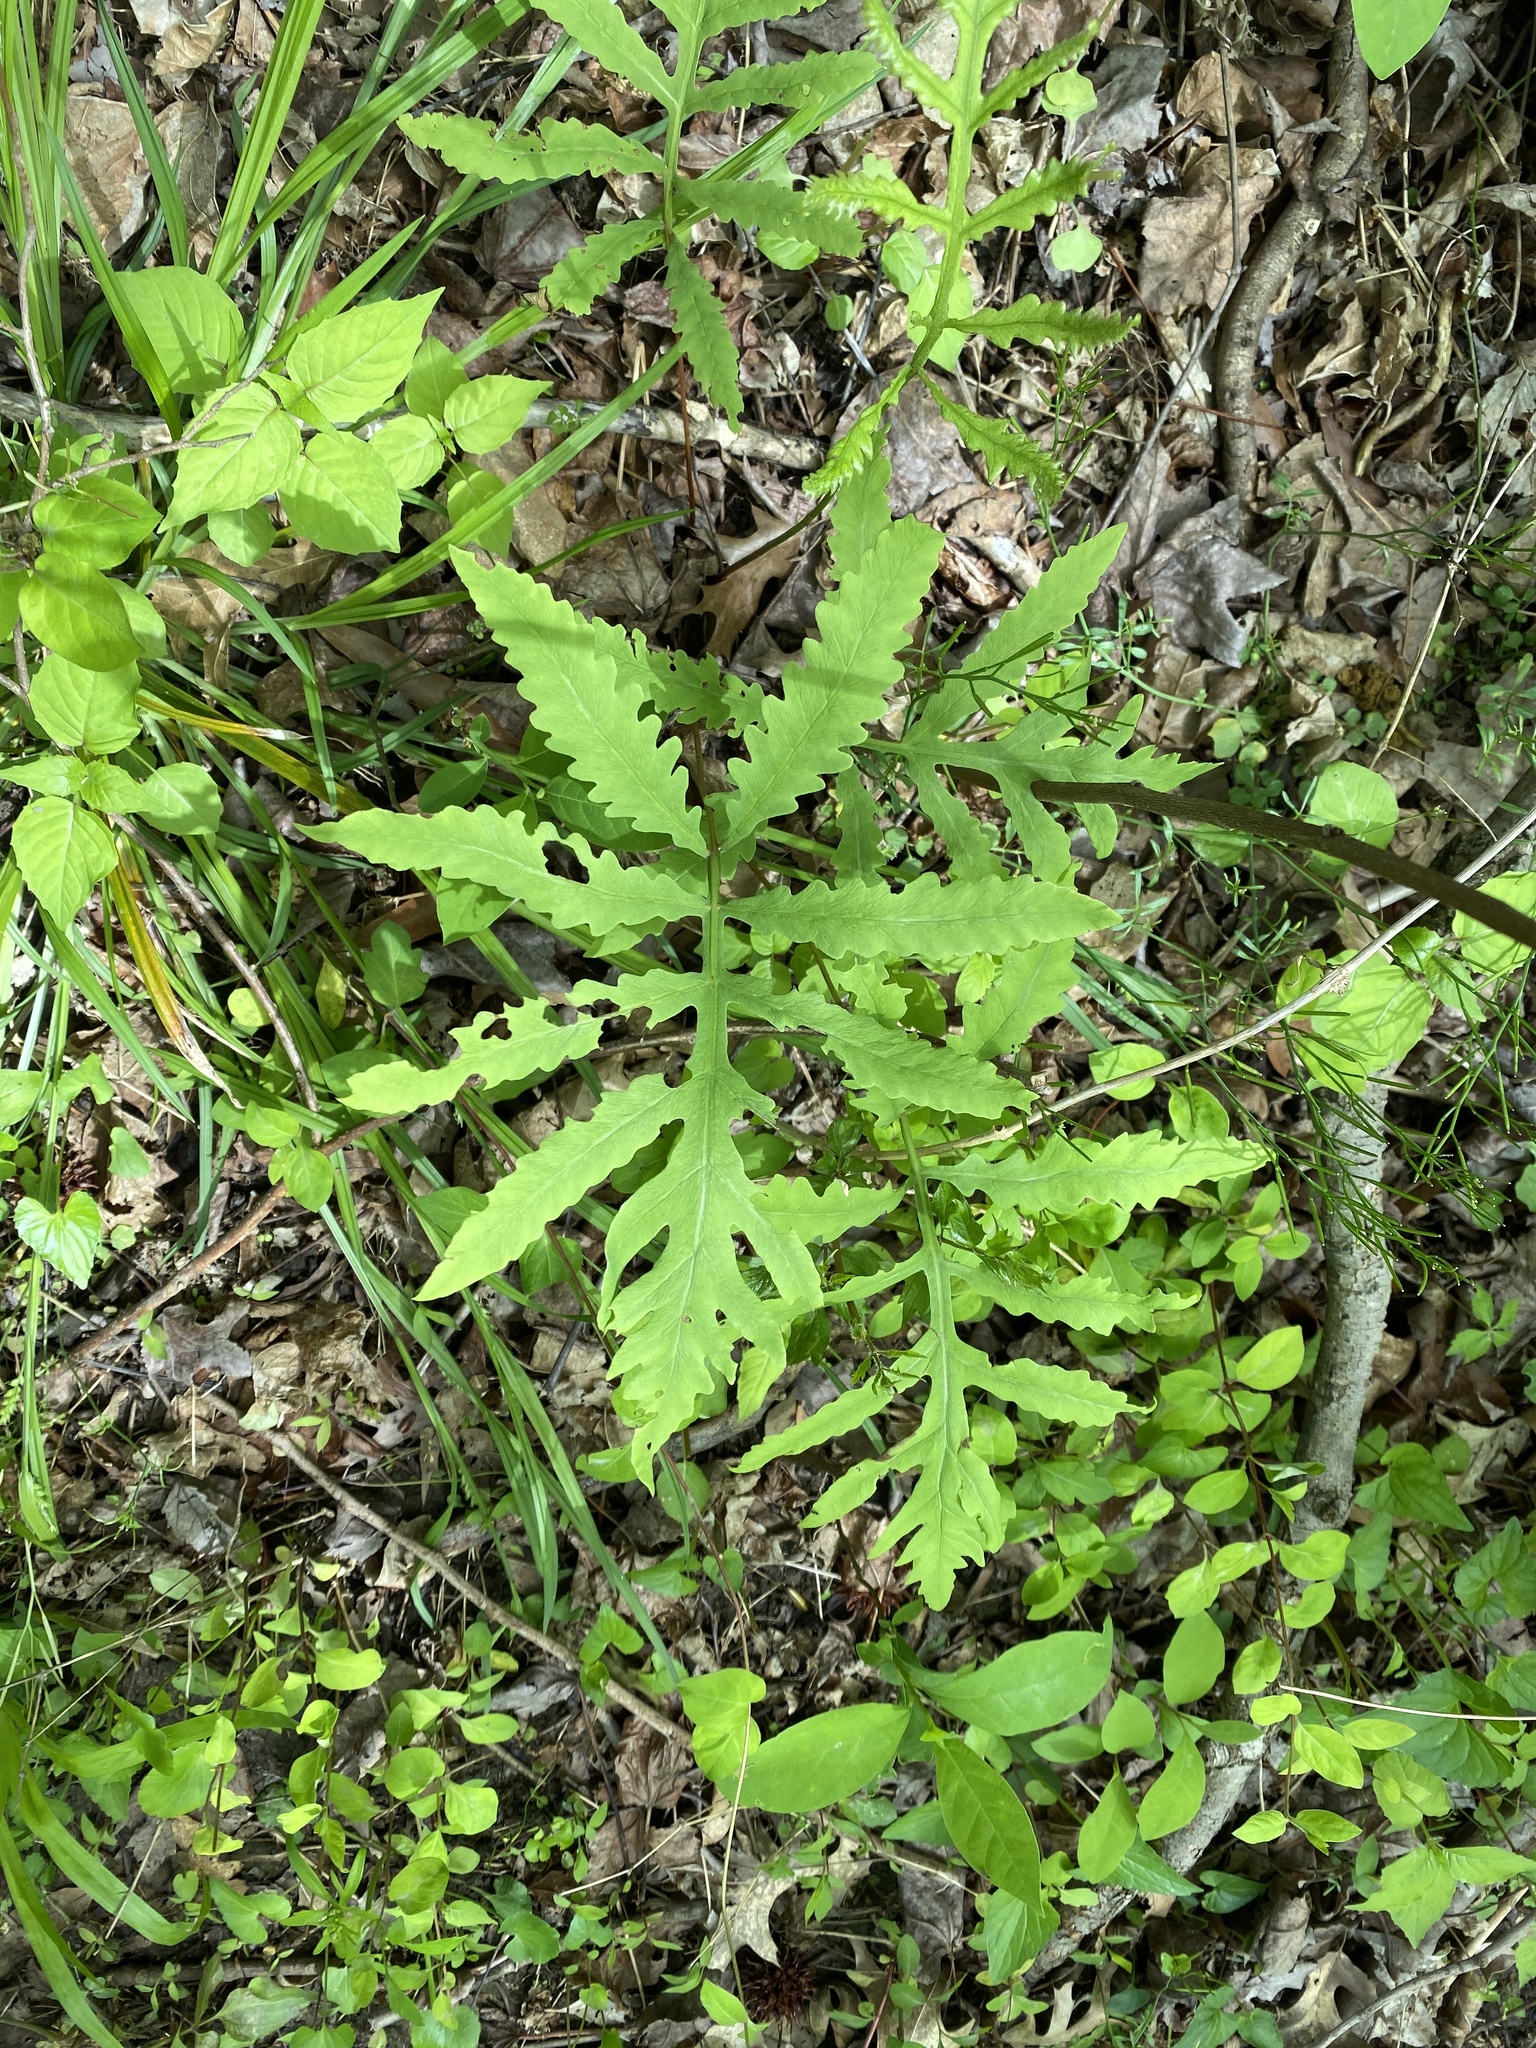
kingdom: Plantae
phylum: Tracheophyta
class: Polypodiopsida
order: Polypodiales
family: Onocleaceae
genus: Onoclea
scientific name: Onoclea sensibilis
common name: Sensitive fern
